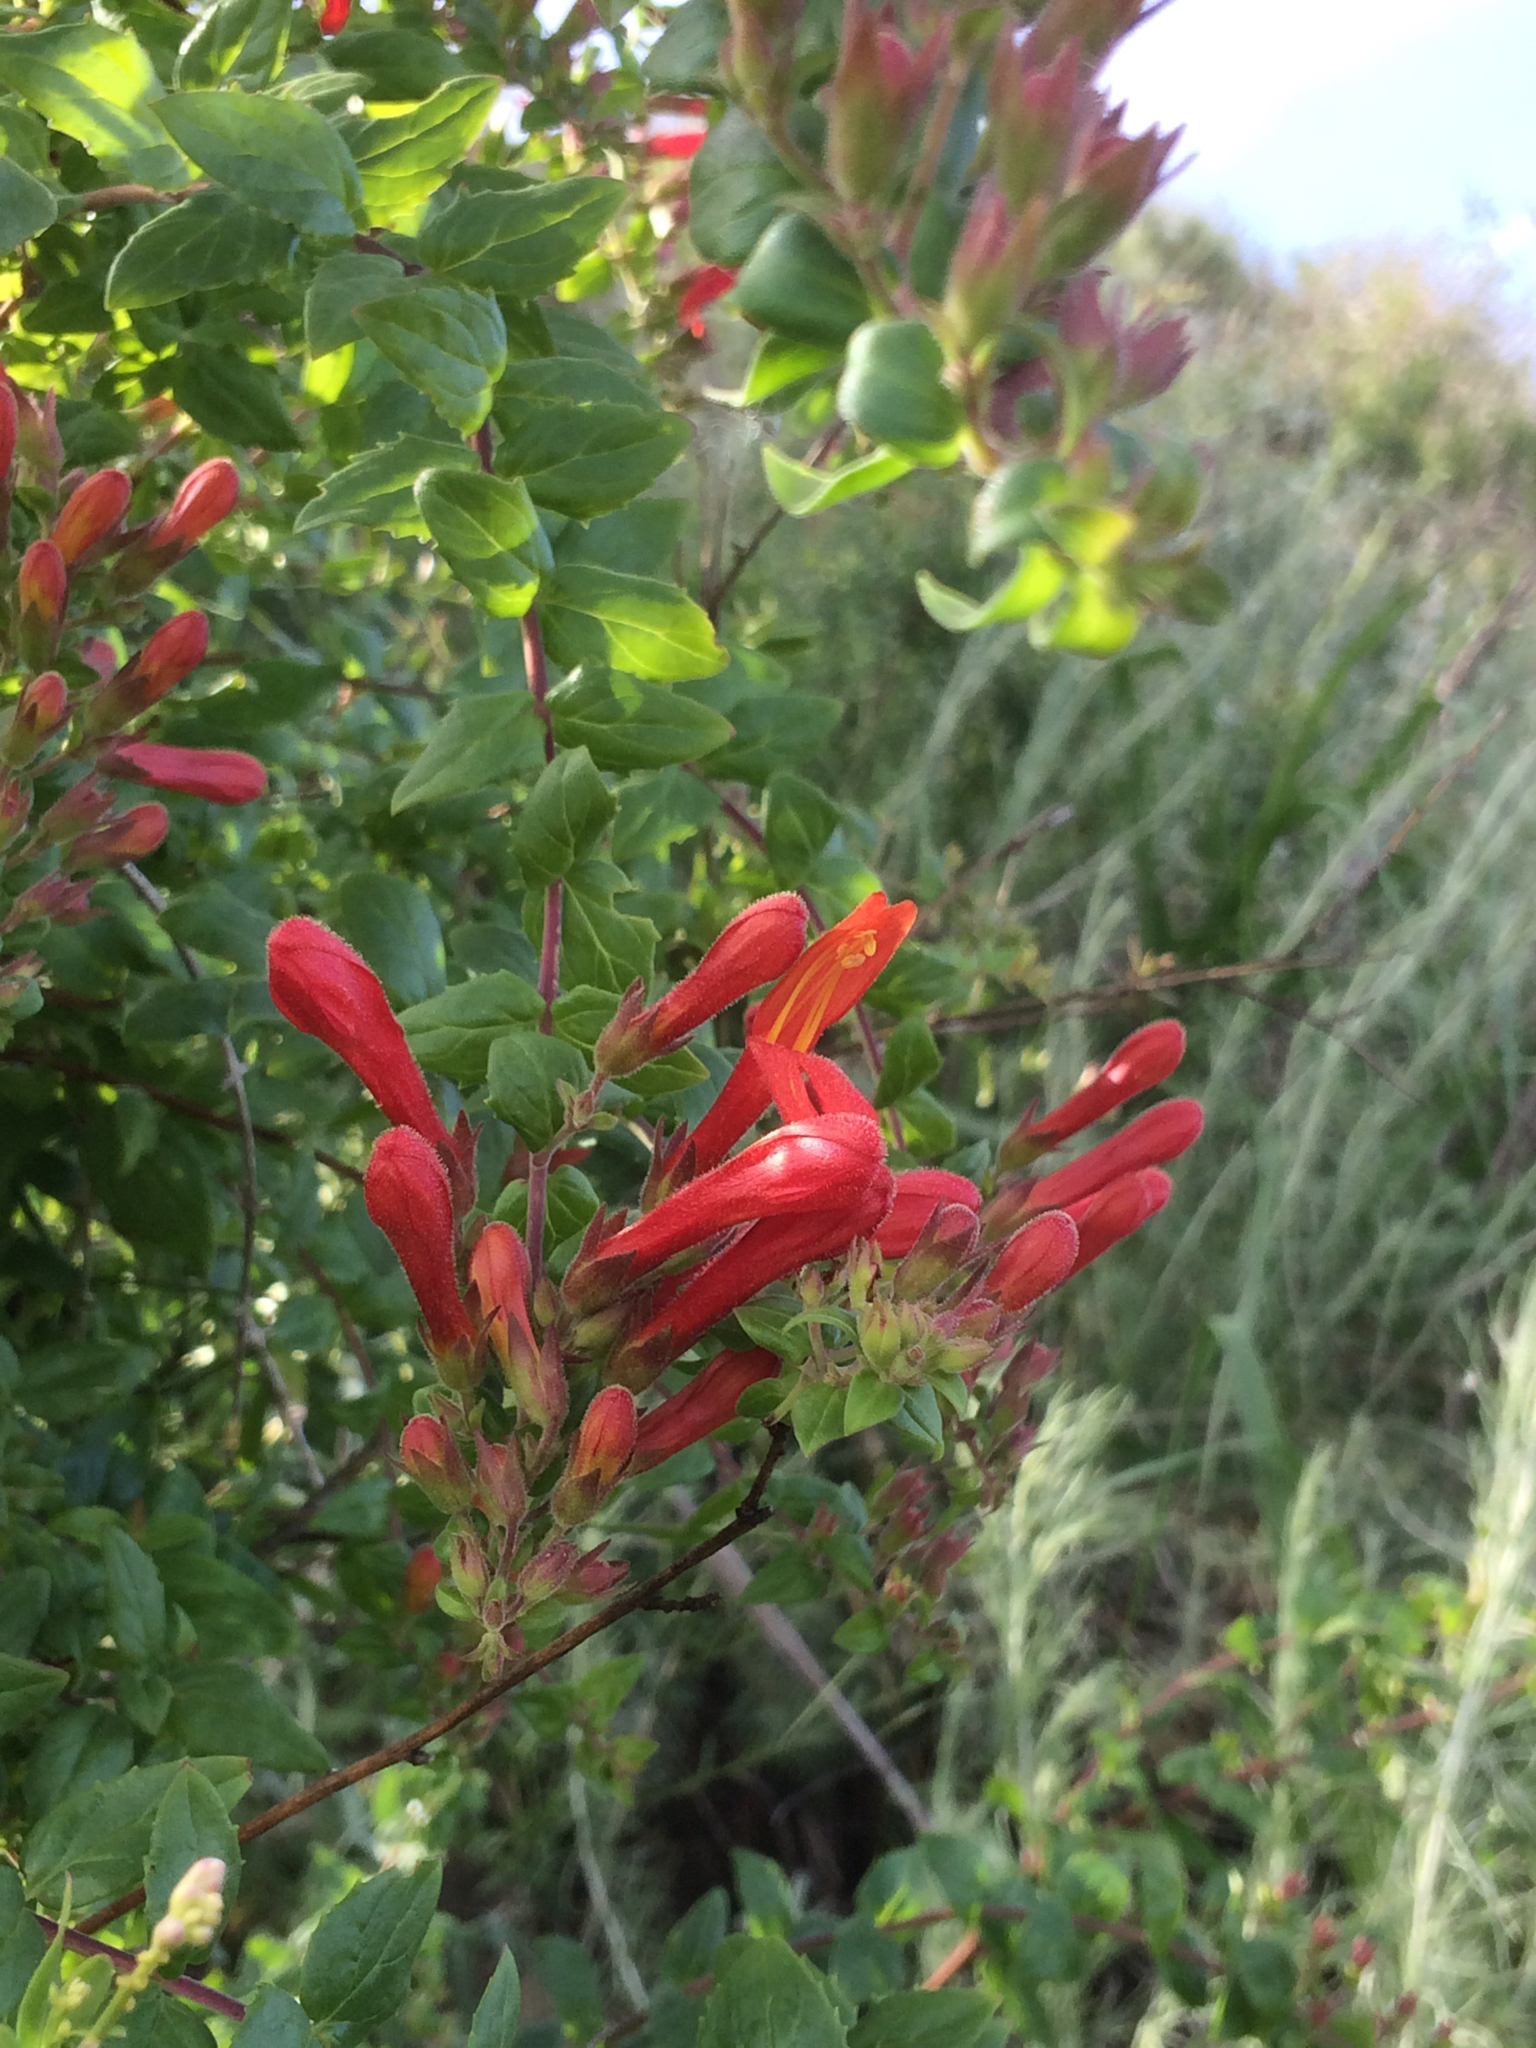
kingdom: Plantae
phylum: Tracheophyta
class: Magnoliopsida
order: Lamiales
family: Plantaginaceae
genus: Keckiella
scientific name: Keckiella cordifolia
